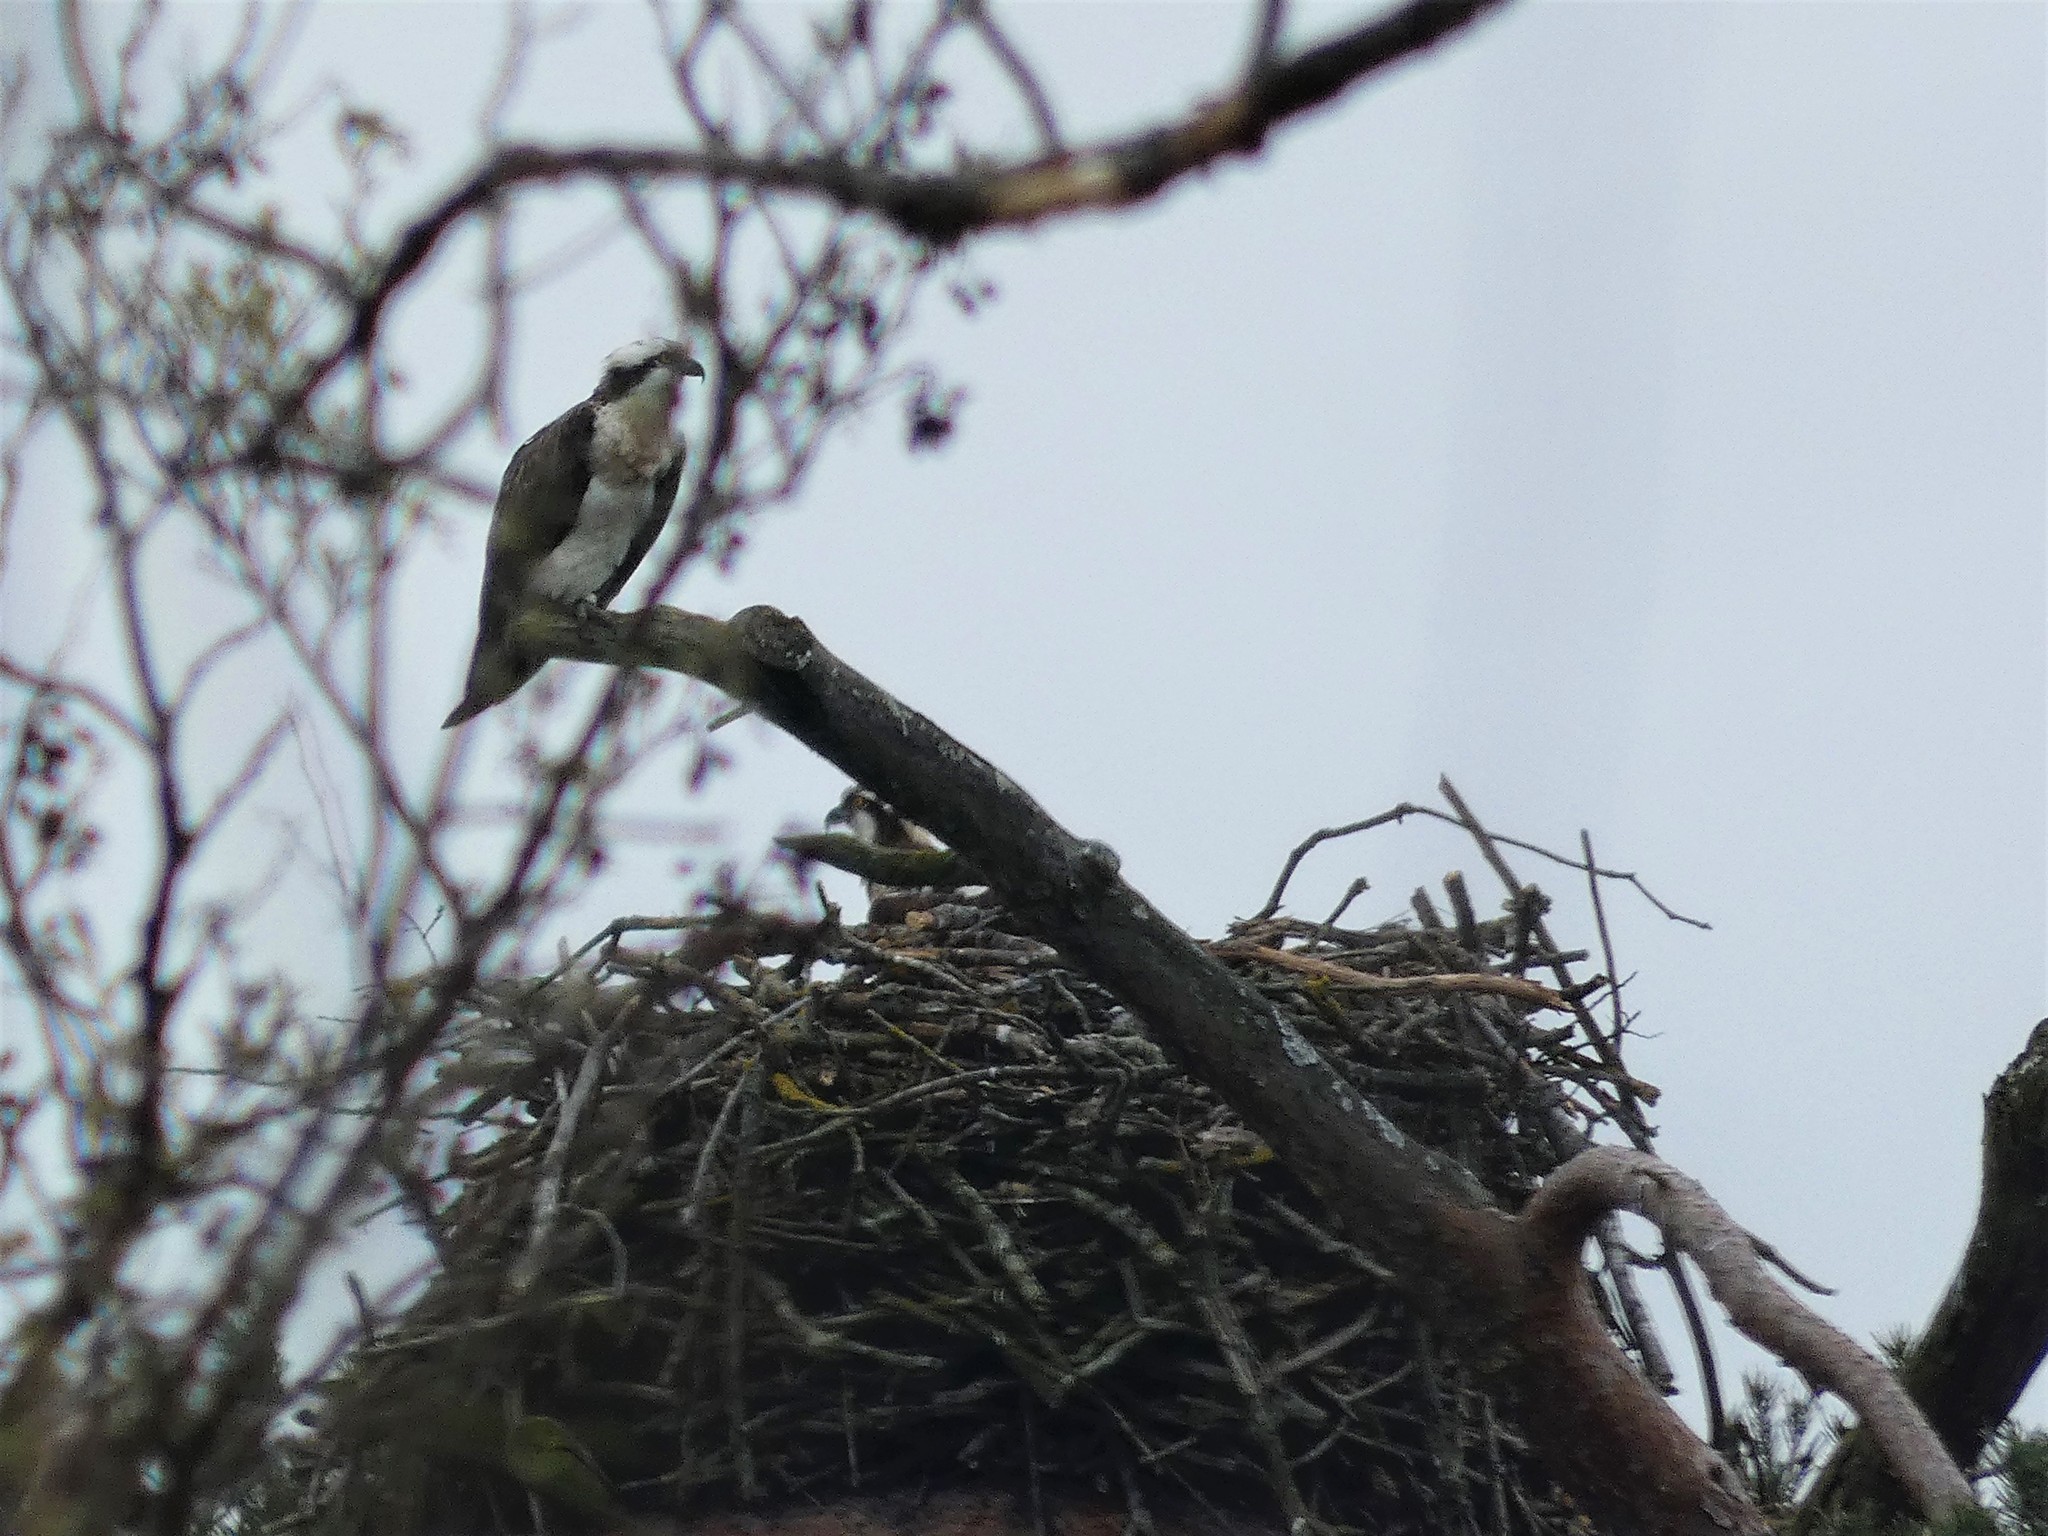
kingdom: Animalia
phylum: Chordata
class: Aves
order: Accipitriformes
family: Pandionidae
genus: Pandion
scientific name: Pandion haliaetus
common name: Osprey
